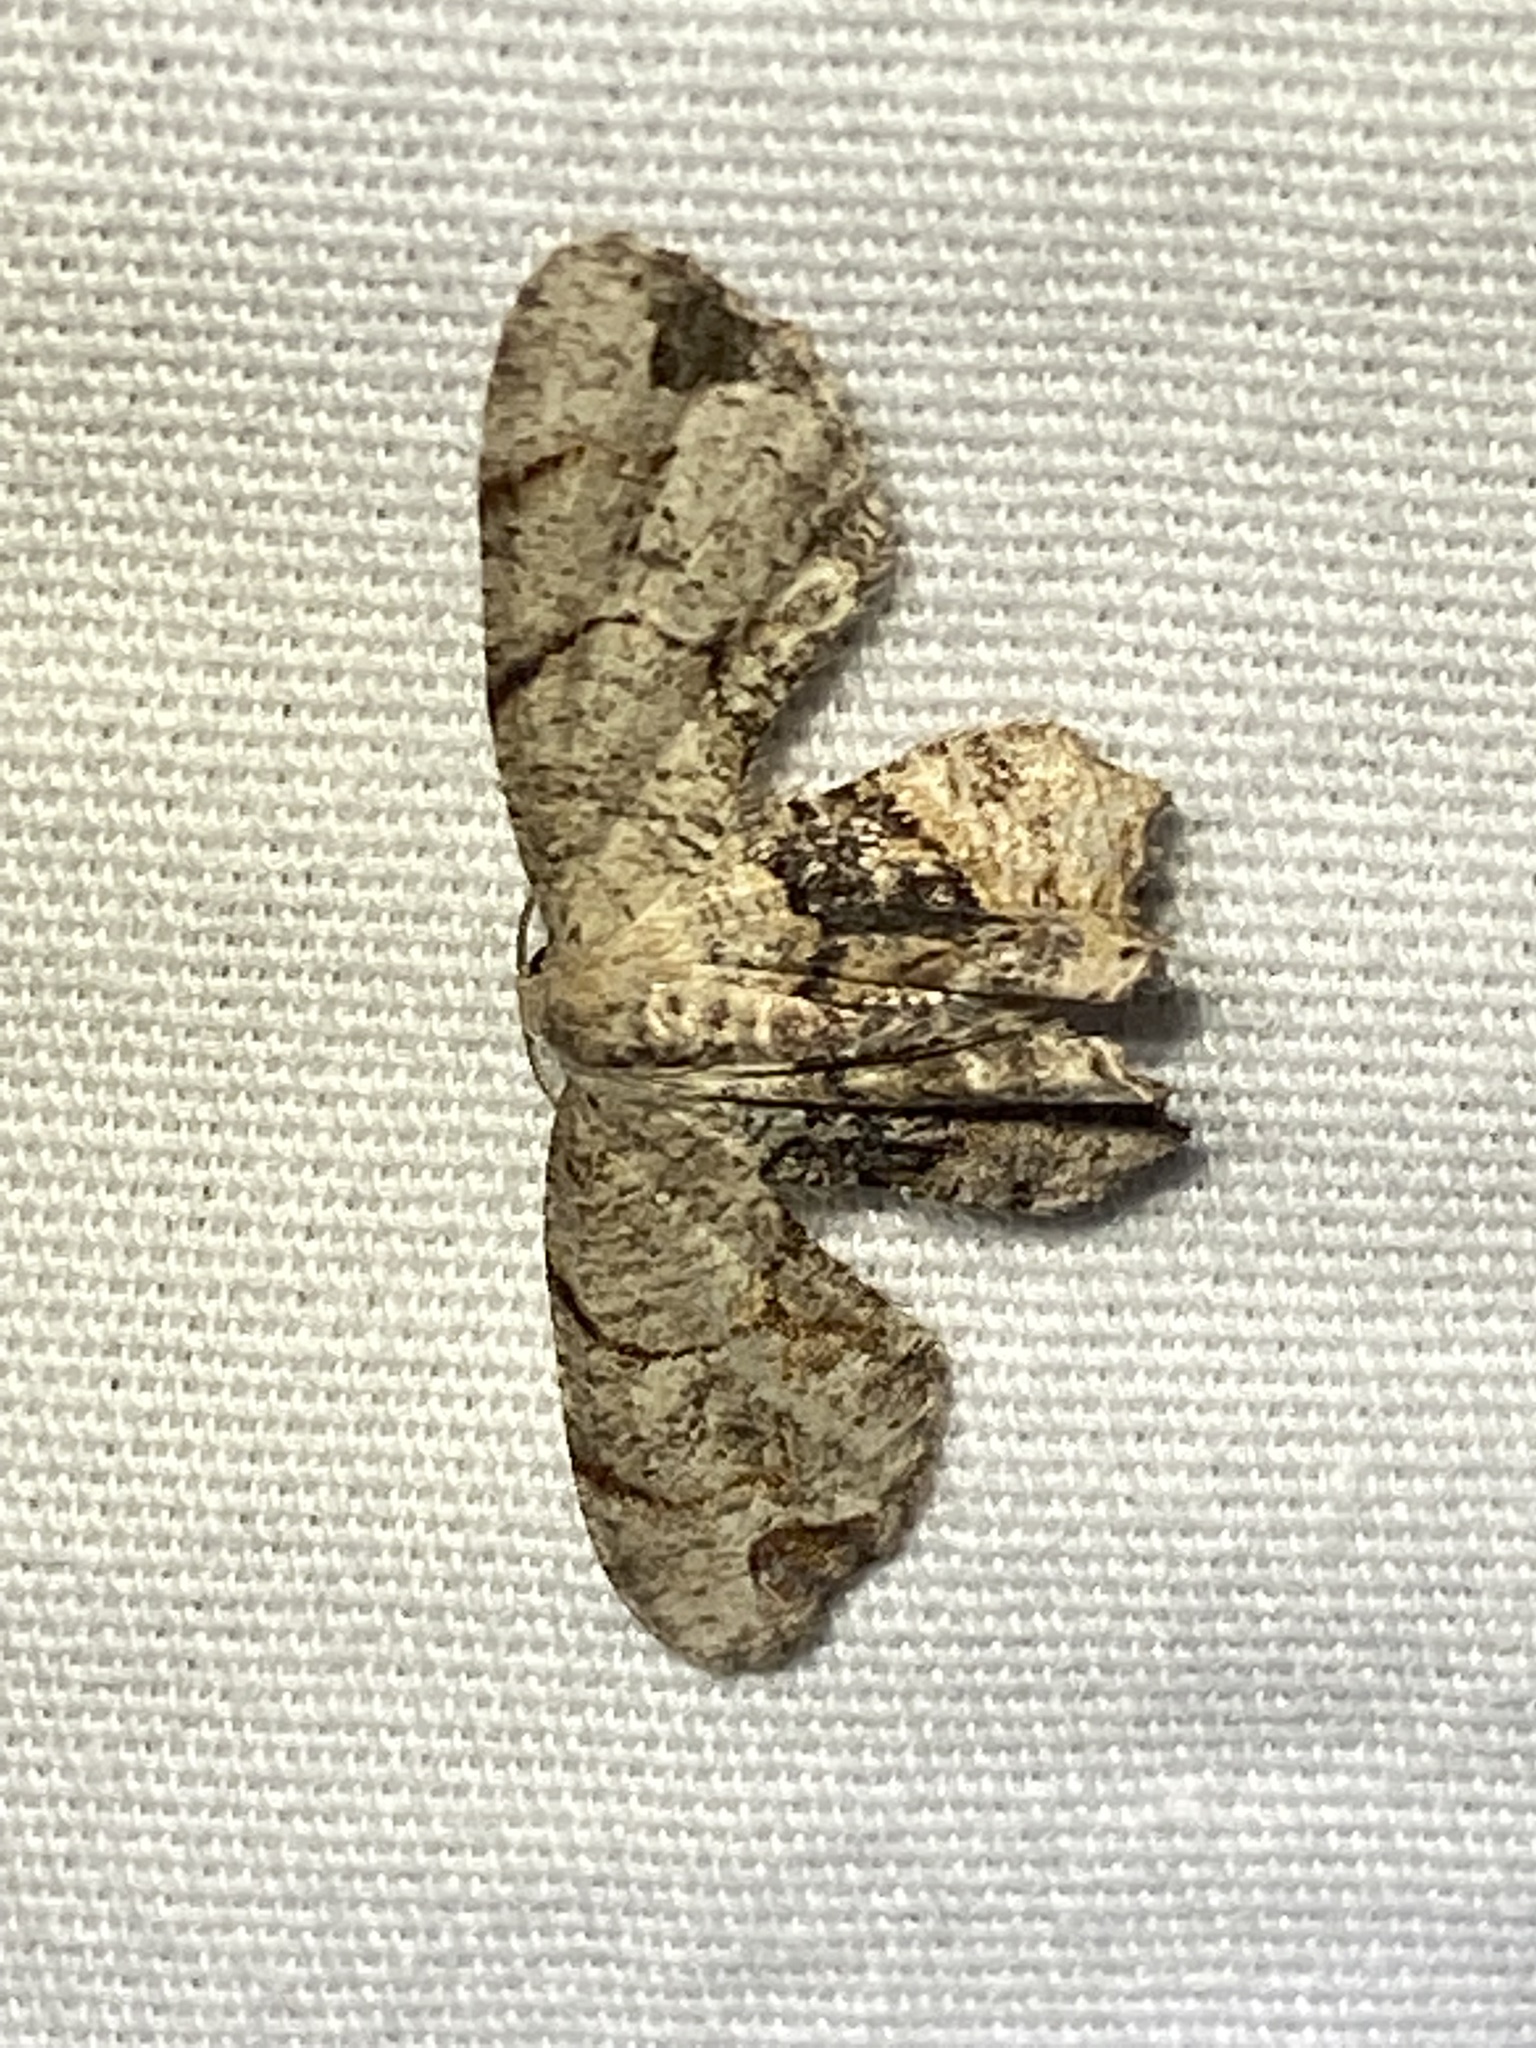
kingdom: Animalia
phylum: Arthropoda
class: Insecta
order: Lepidoptera
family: Uraniidae
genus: Epiplema
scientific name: Epiplema Callizzia amorata
